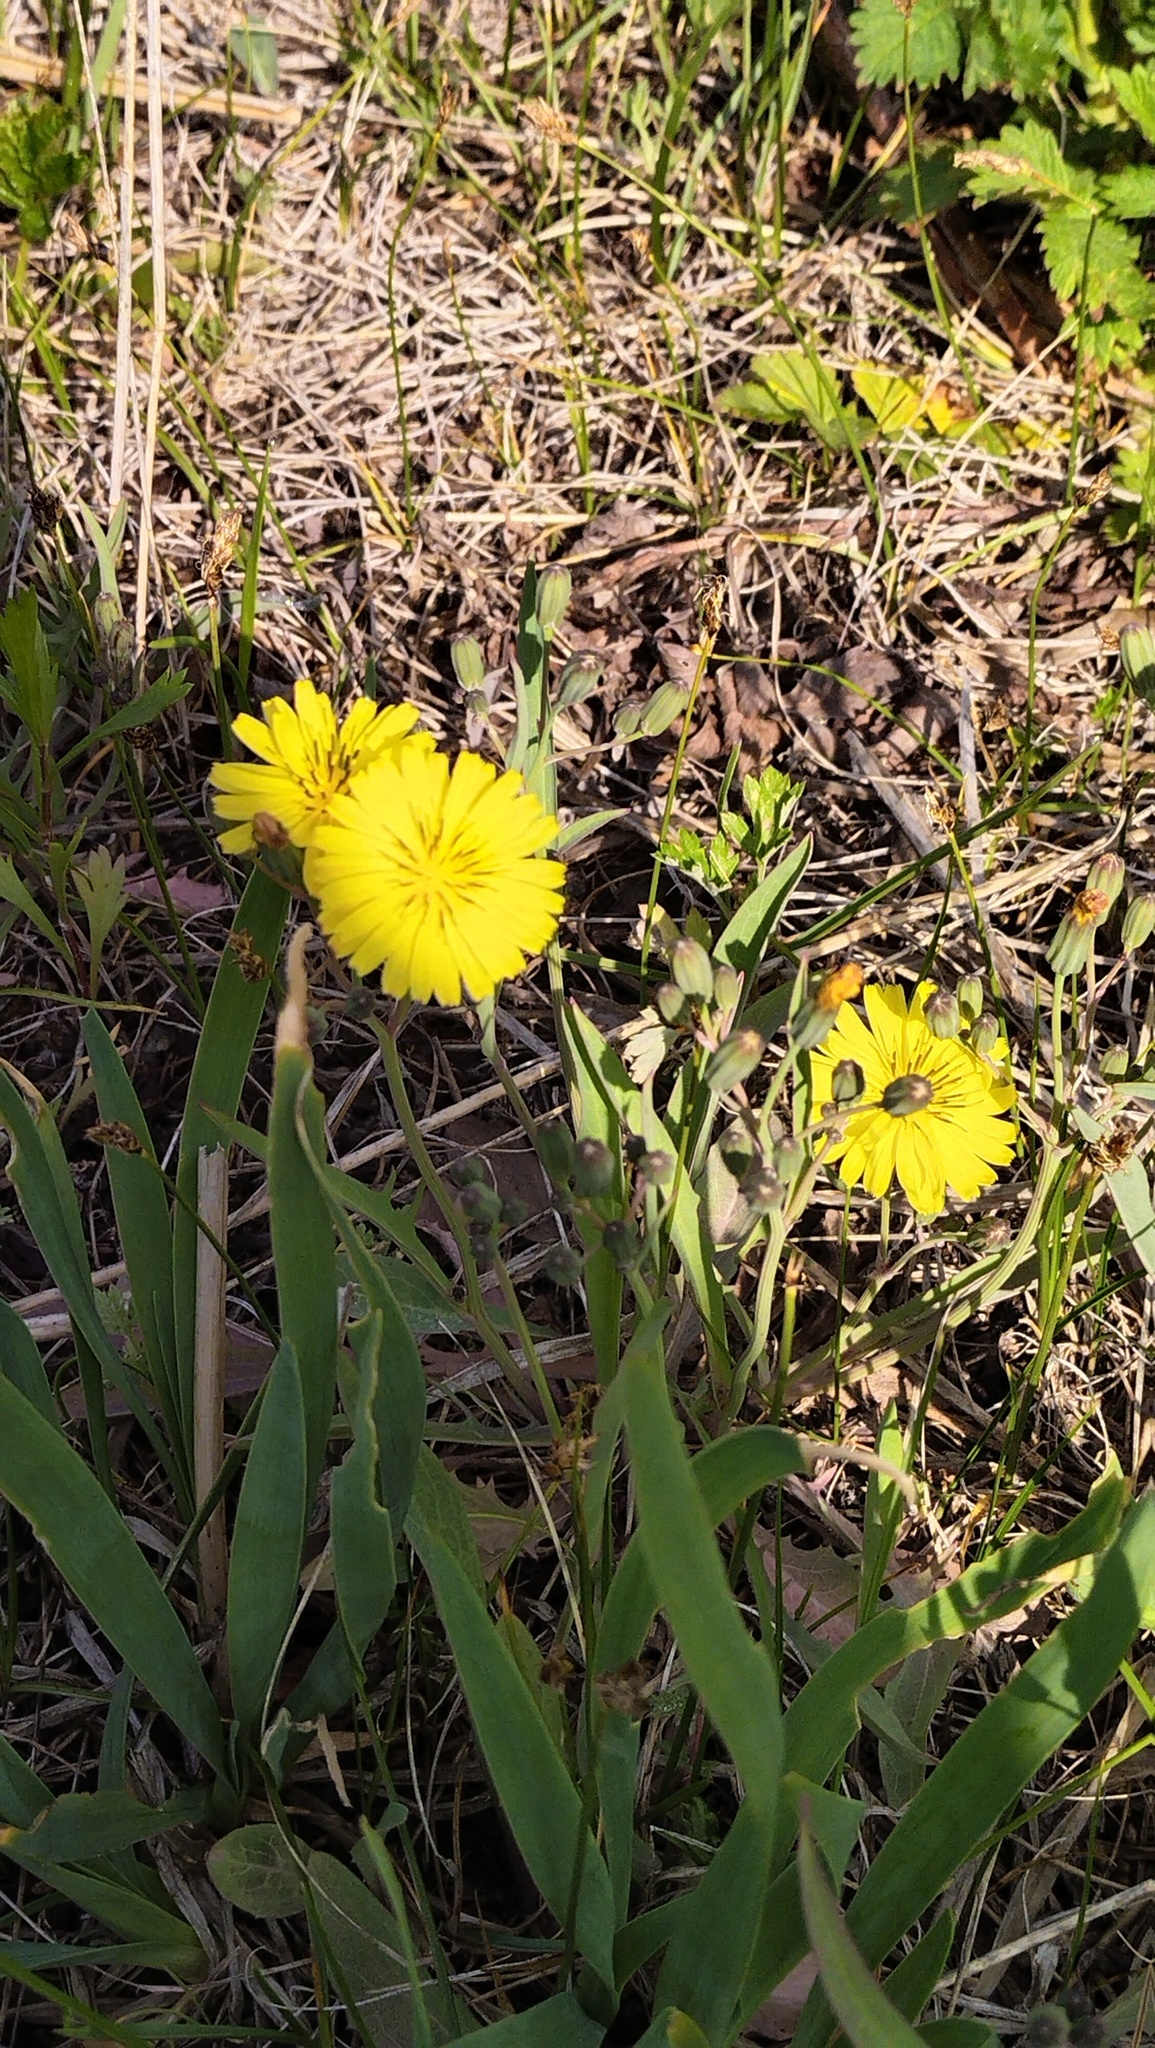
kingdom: Plantae
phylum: Tracheophyta
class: Magnoliopsida
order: Asterales
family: Asteraceae
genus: Ixeris
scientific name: Ixeris chinensis
